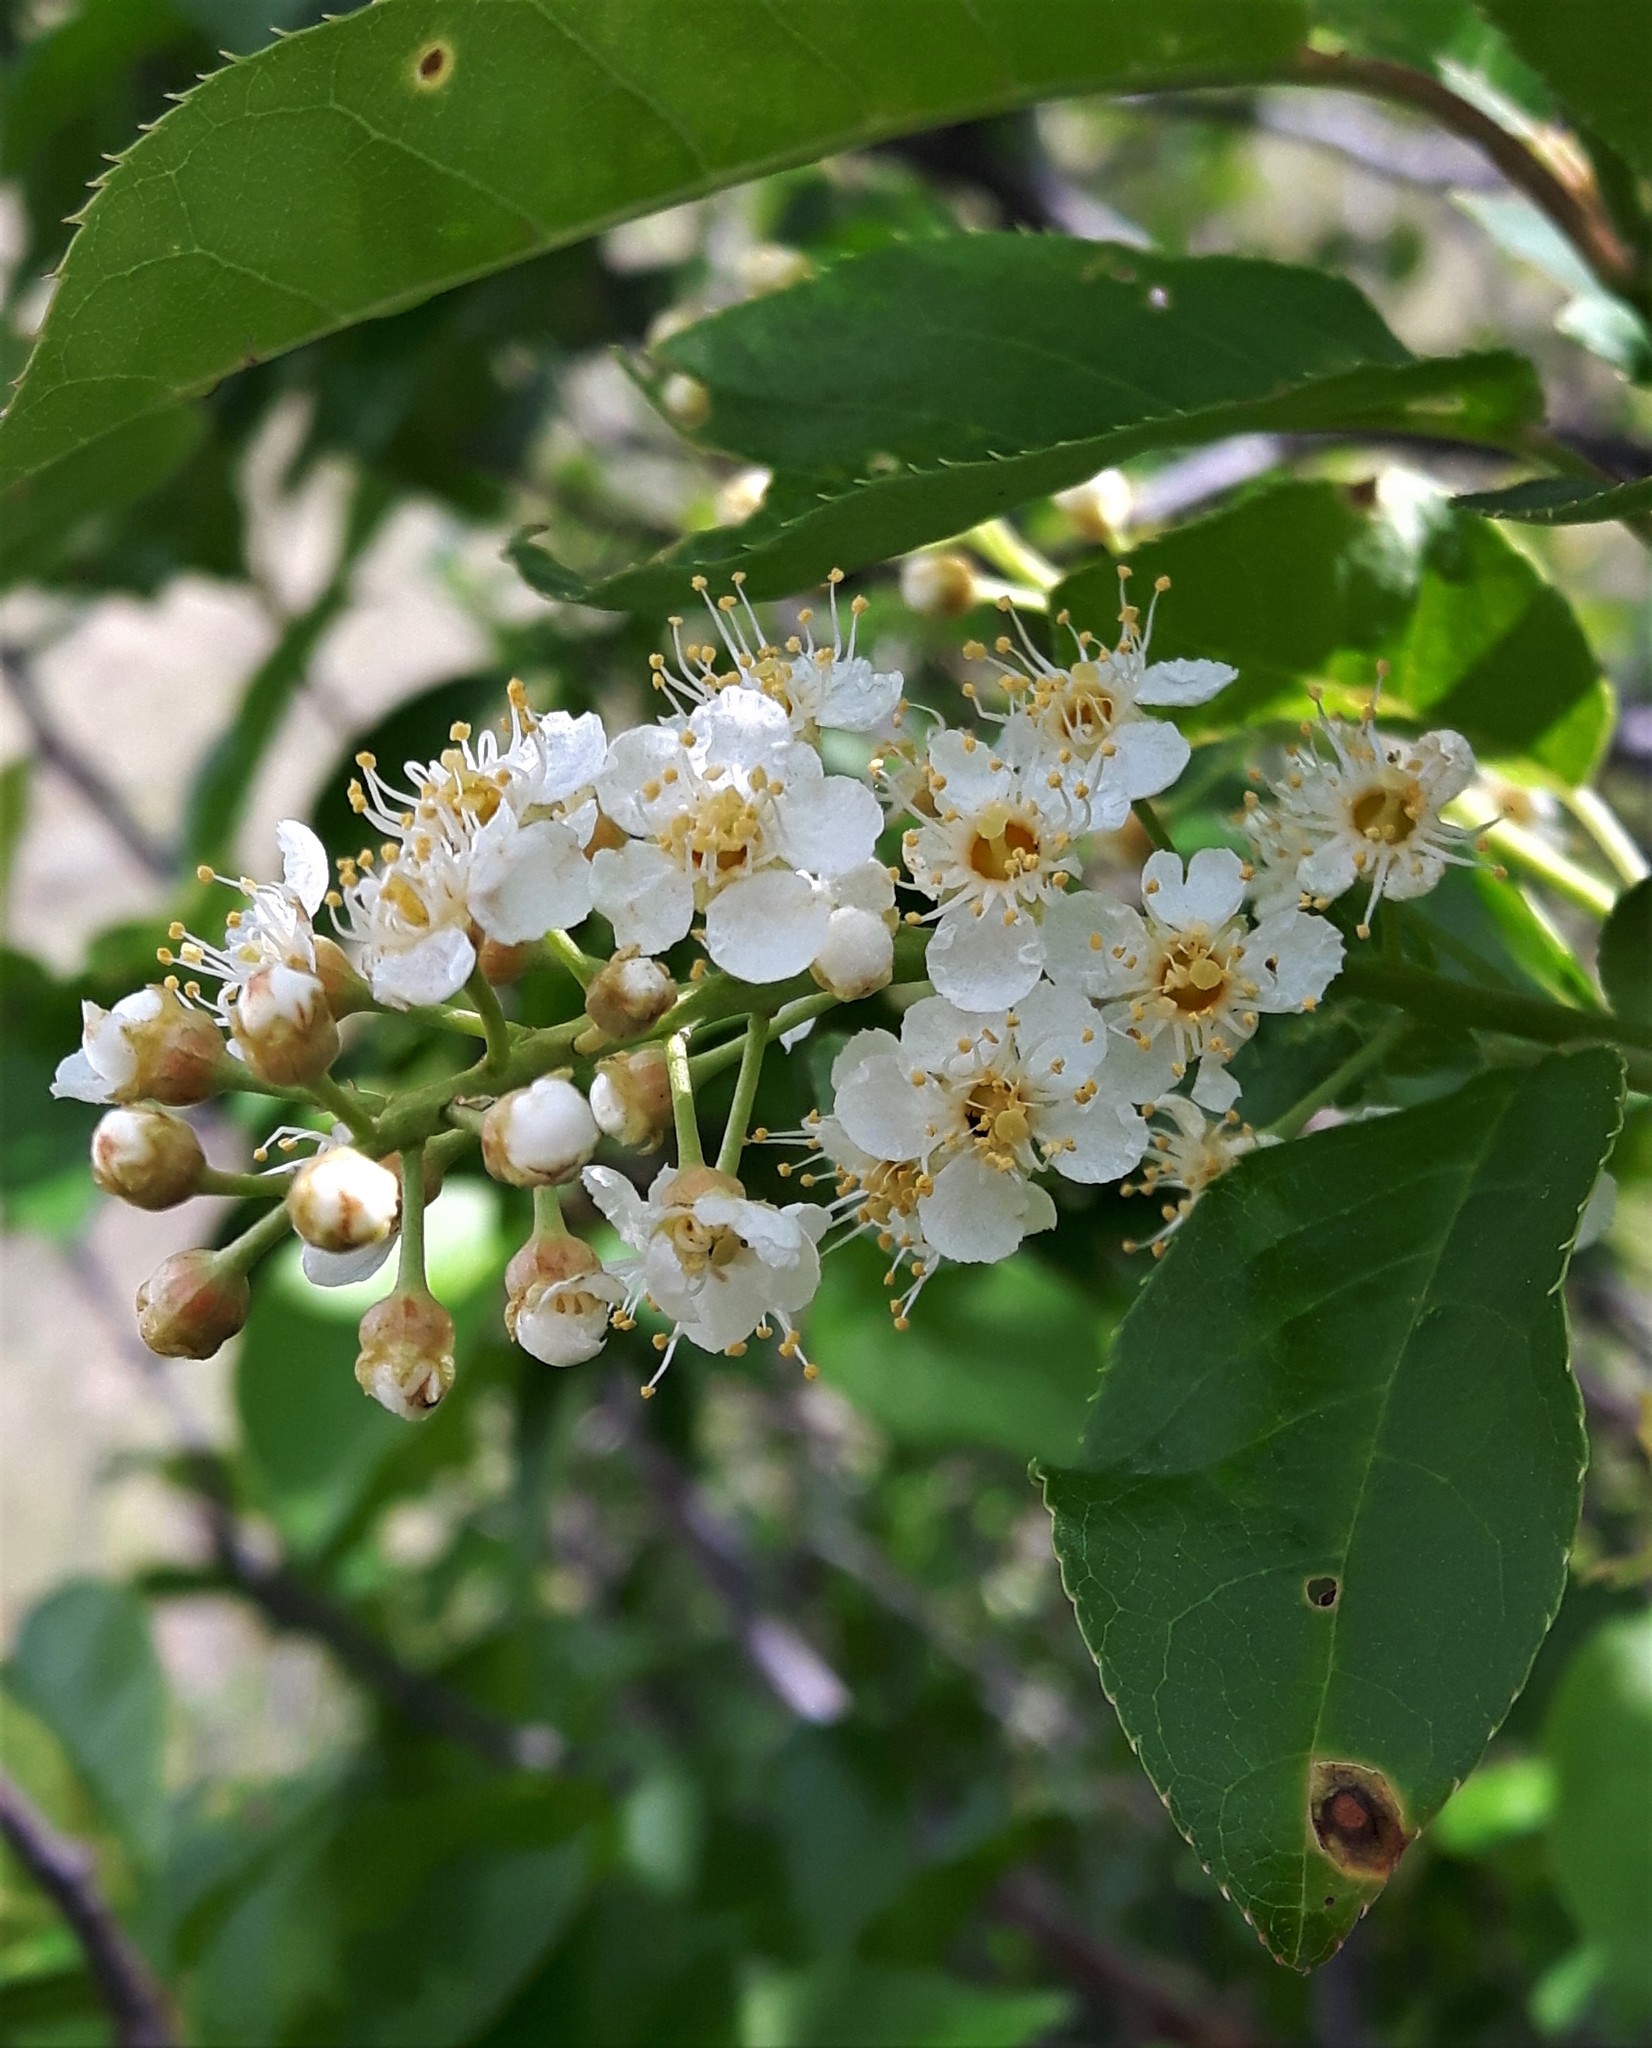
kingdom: Plantae
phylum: Tracheophyta
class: Magnoliopsida
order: Rosales
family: Rosaceae
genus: Prunus
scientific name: Prunus virginiana
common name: Chokecherry
